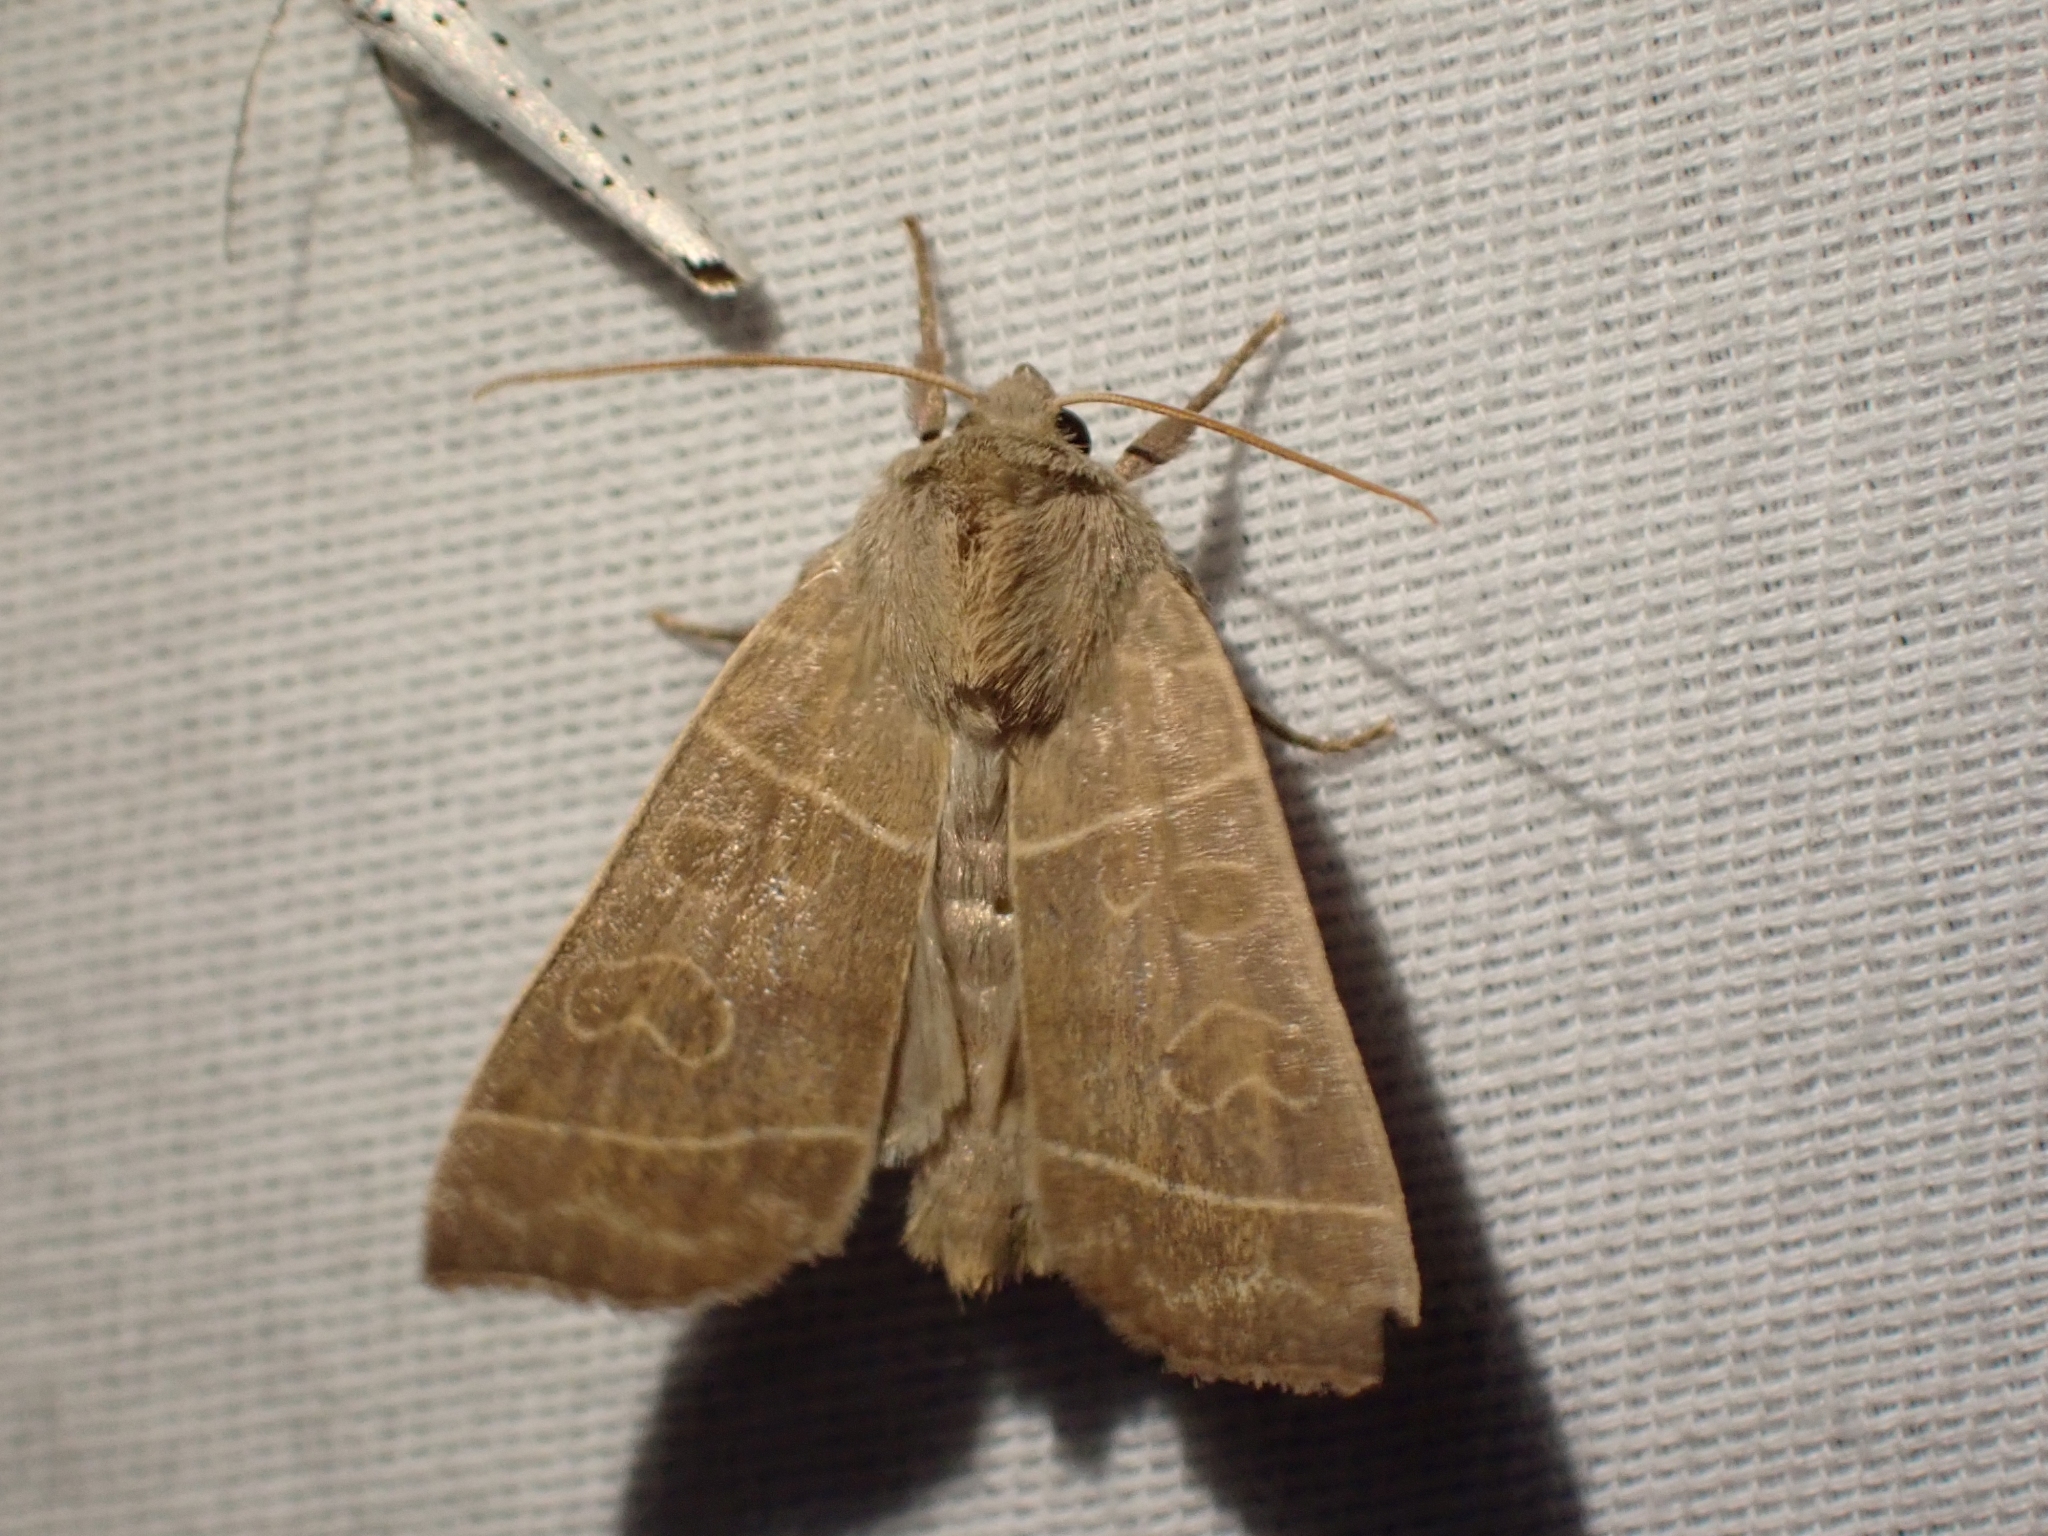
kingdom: Animalia
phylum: Arthropoda
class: Insecta
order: Lepidoptera
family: Noctuidae
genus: Ipimorpha
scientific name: Ipimorpha pleonectusa
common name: Even-lined sallow
